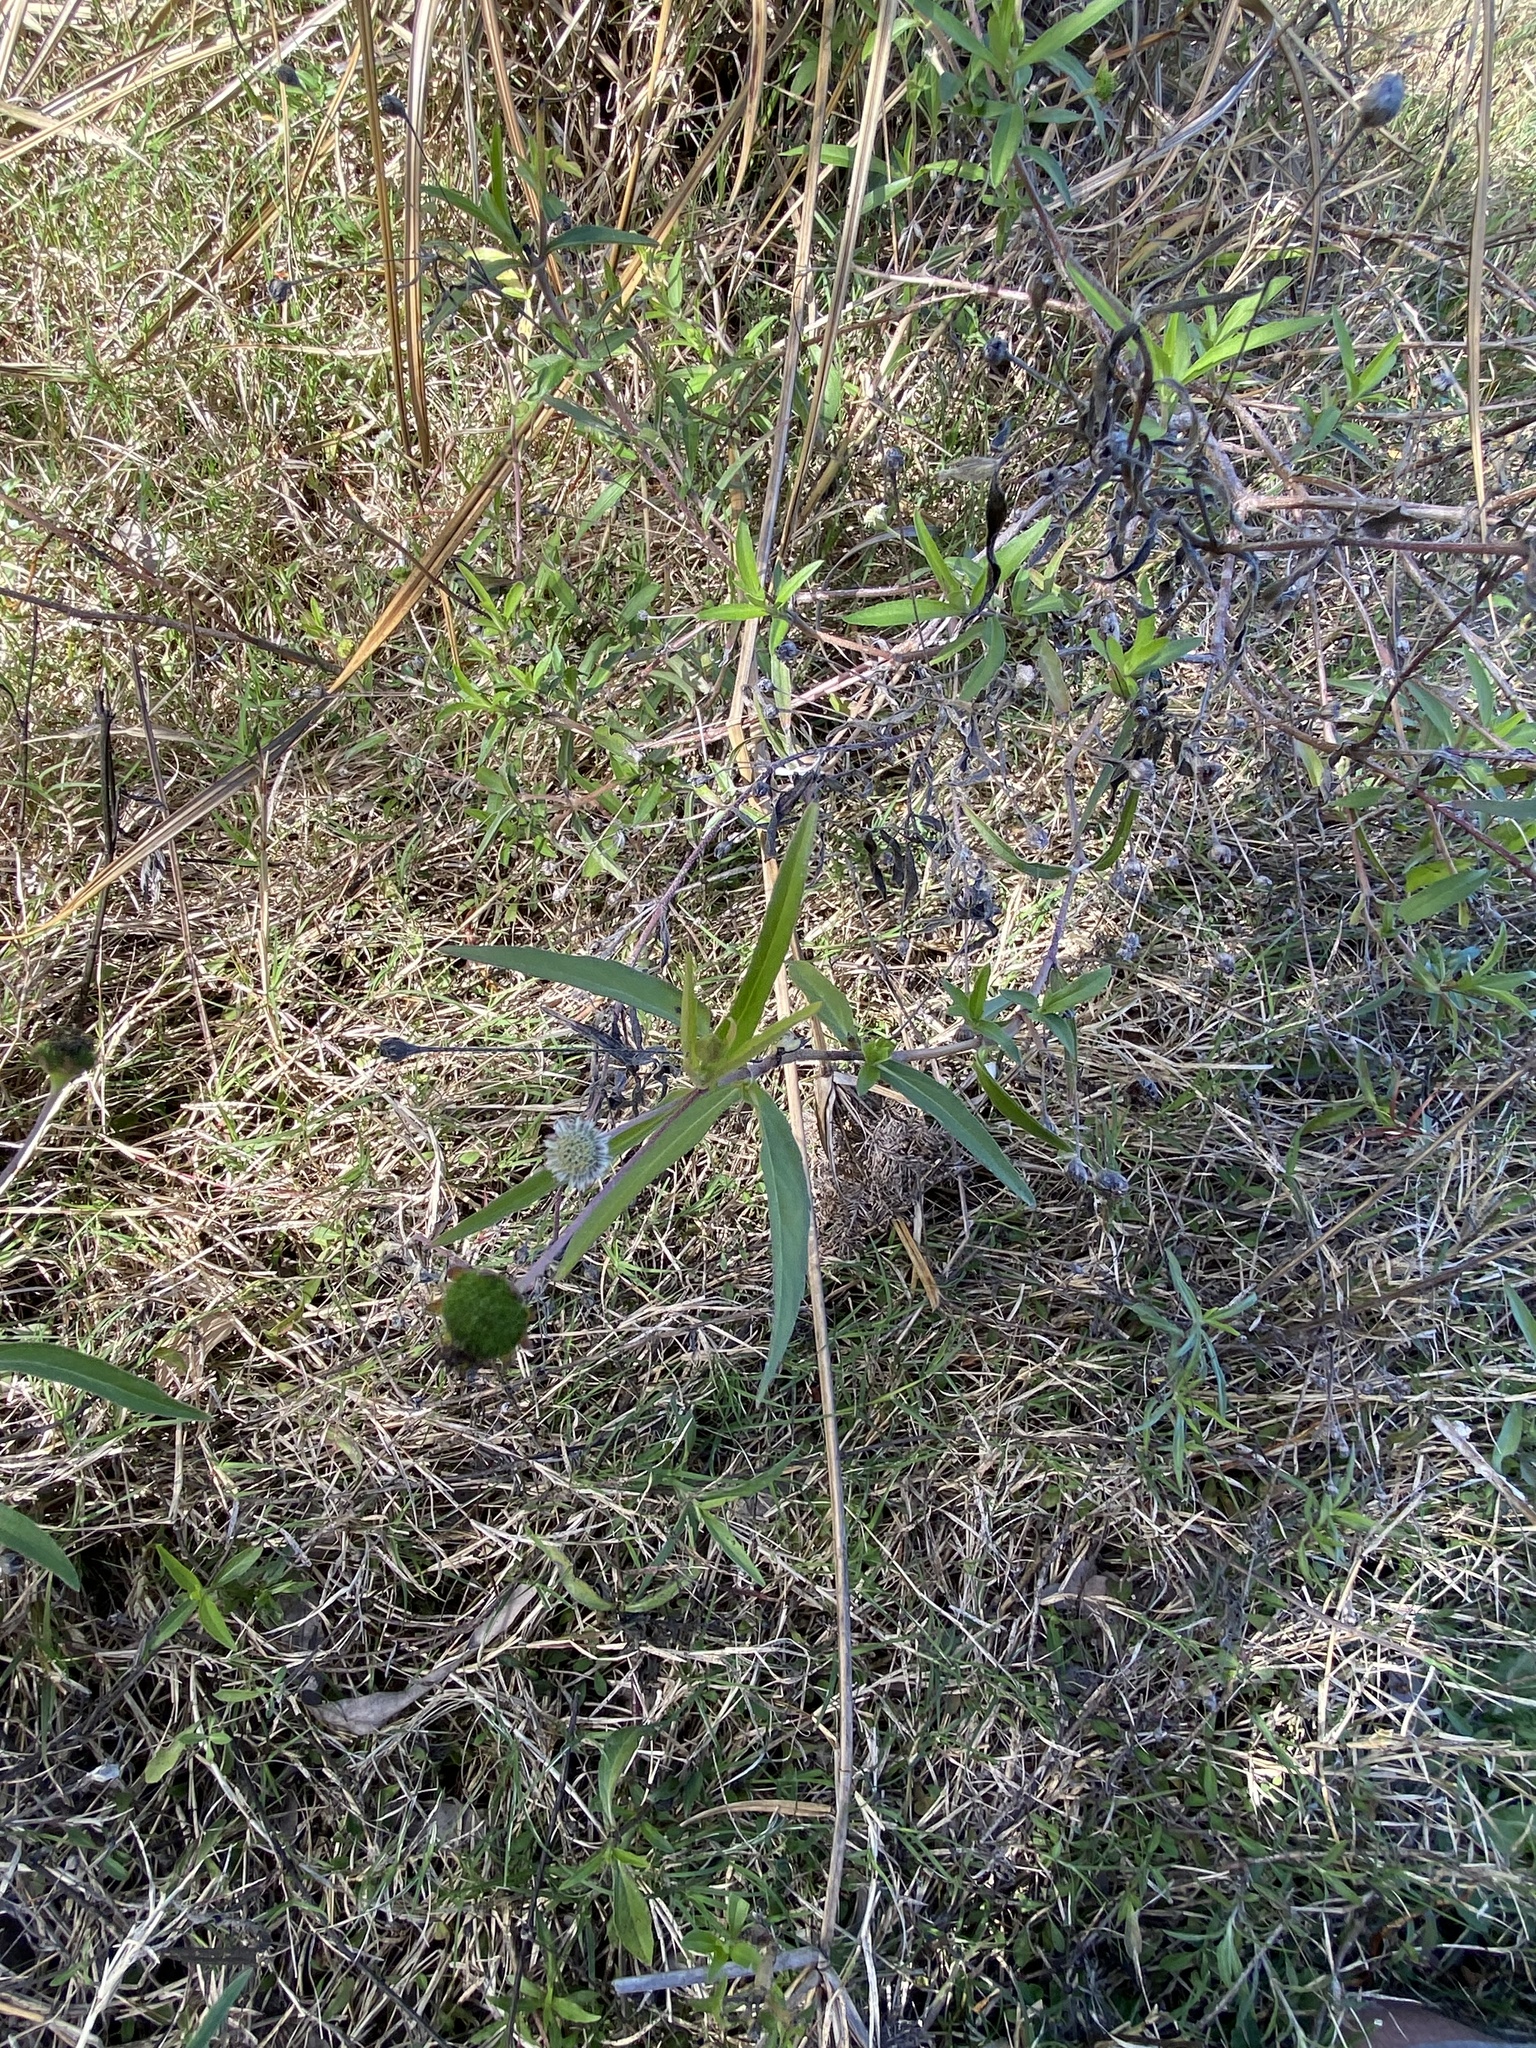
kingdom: Plantae
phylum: Tracheophyta
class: Magnoliopsida
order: Asterales
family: Asteraceae
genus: Eclipta
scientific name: Eclipta prostrata
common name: False daisy
